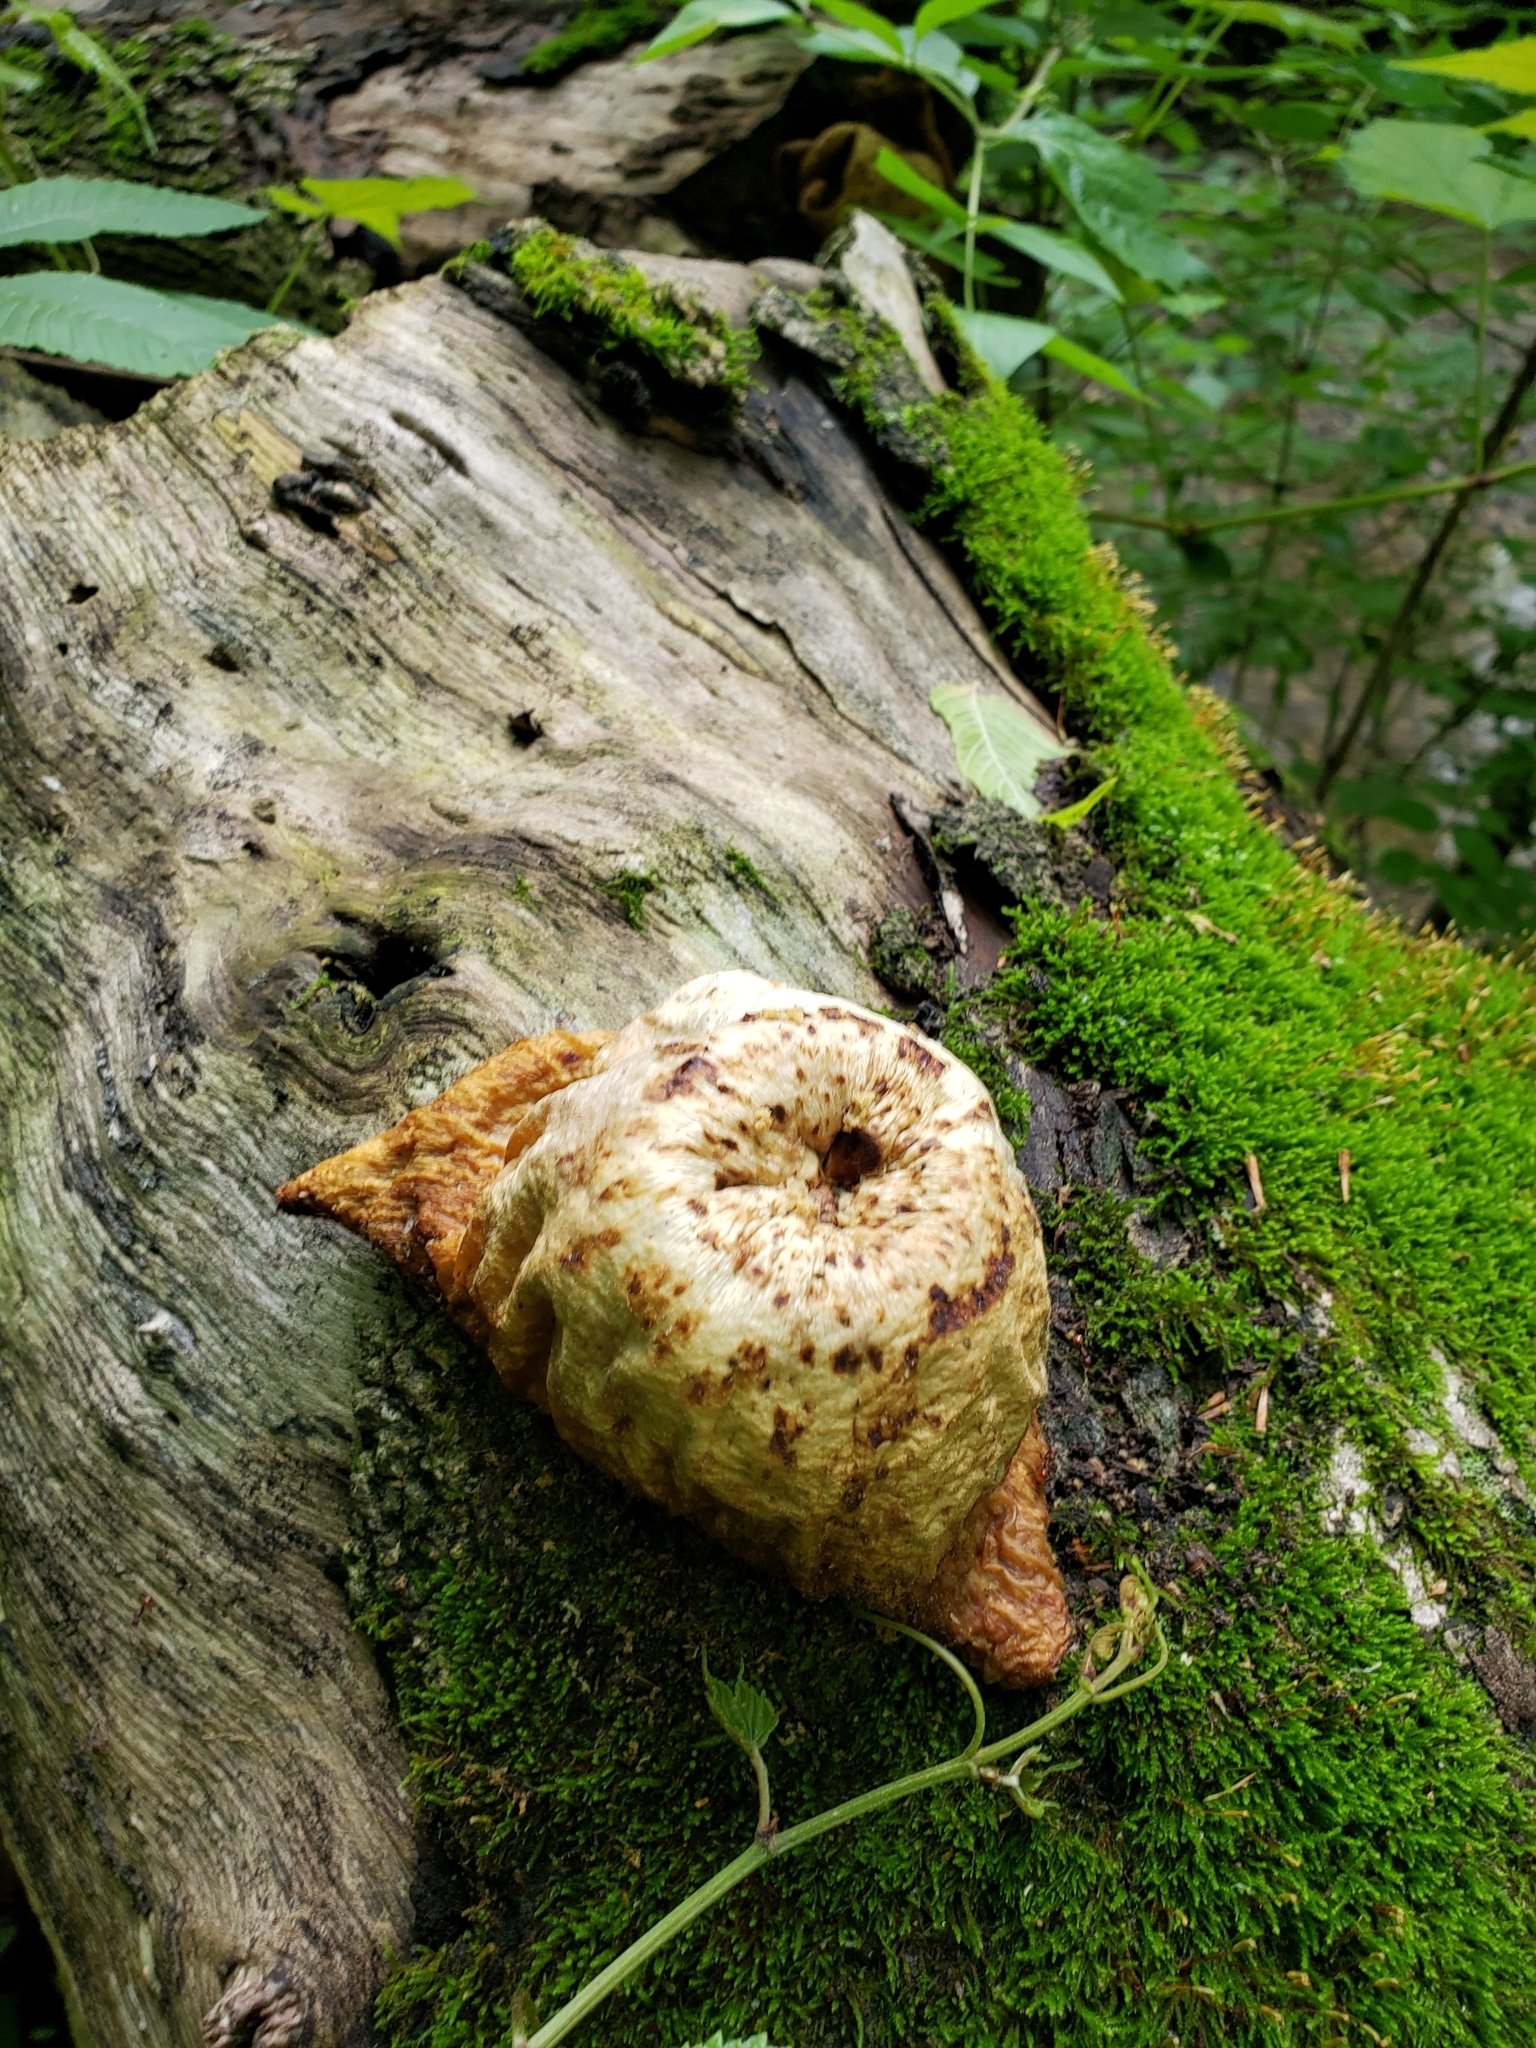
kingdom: Fungi
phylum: Basidiomycota
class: Agaricomycetes
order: Polyporales
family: Polyporaceae
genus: Cerioporus
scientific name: Cerioporus squamosus
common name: Dryad's saddle
